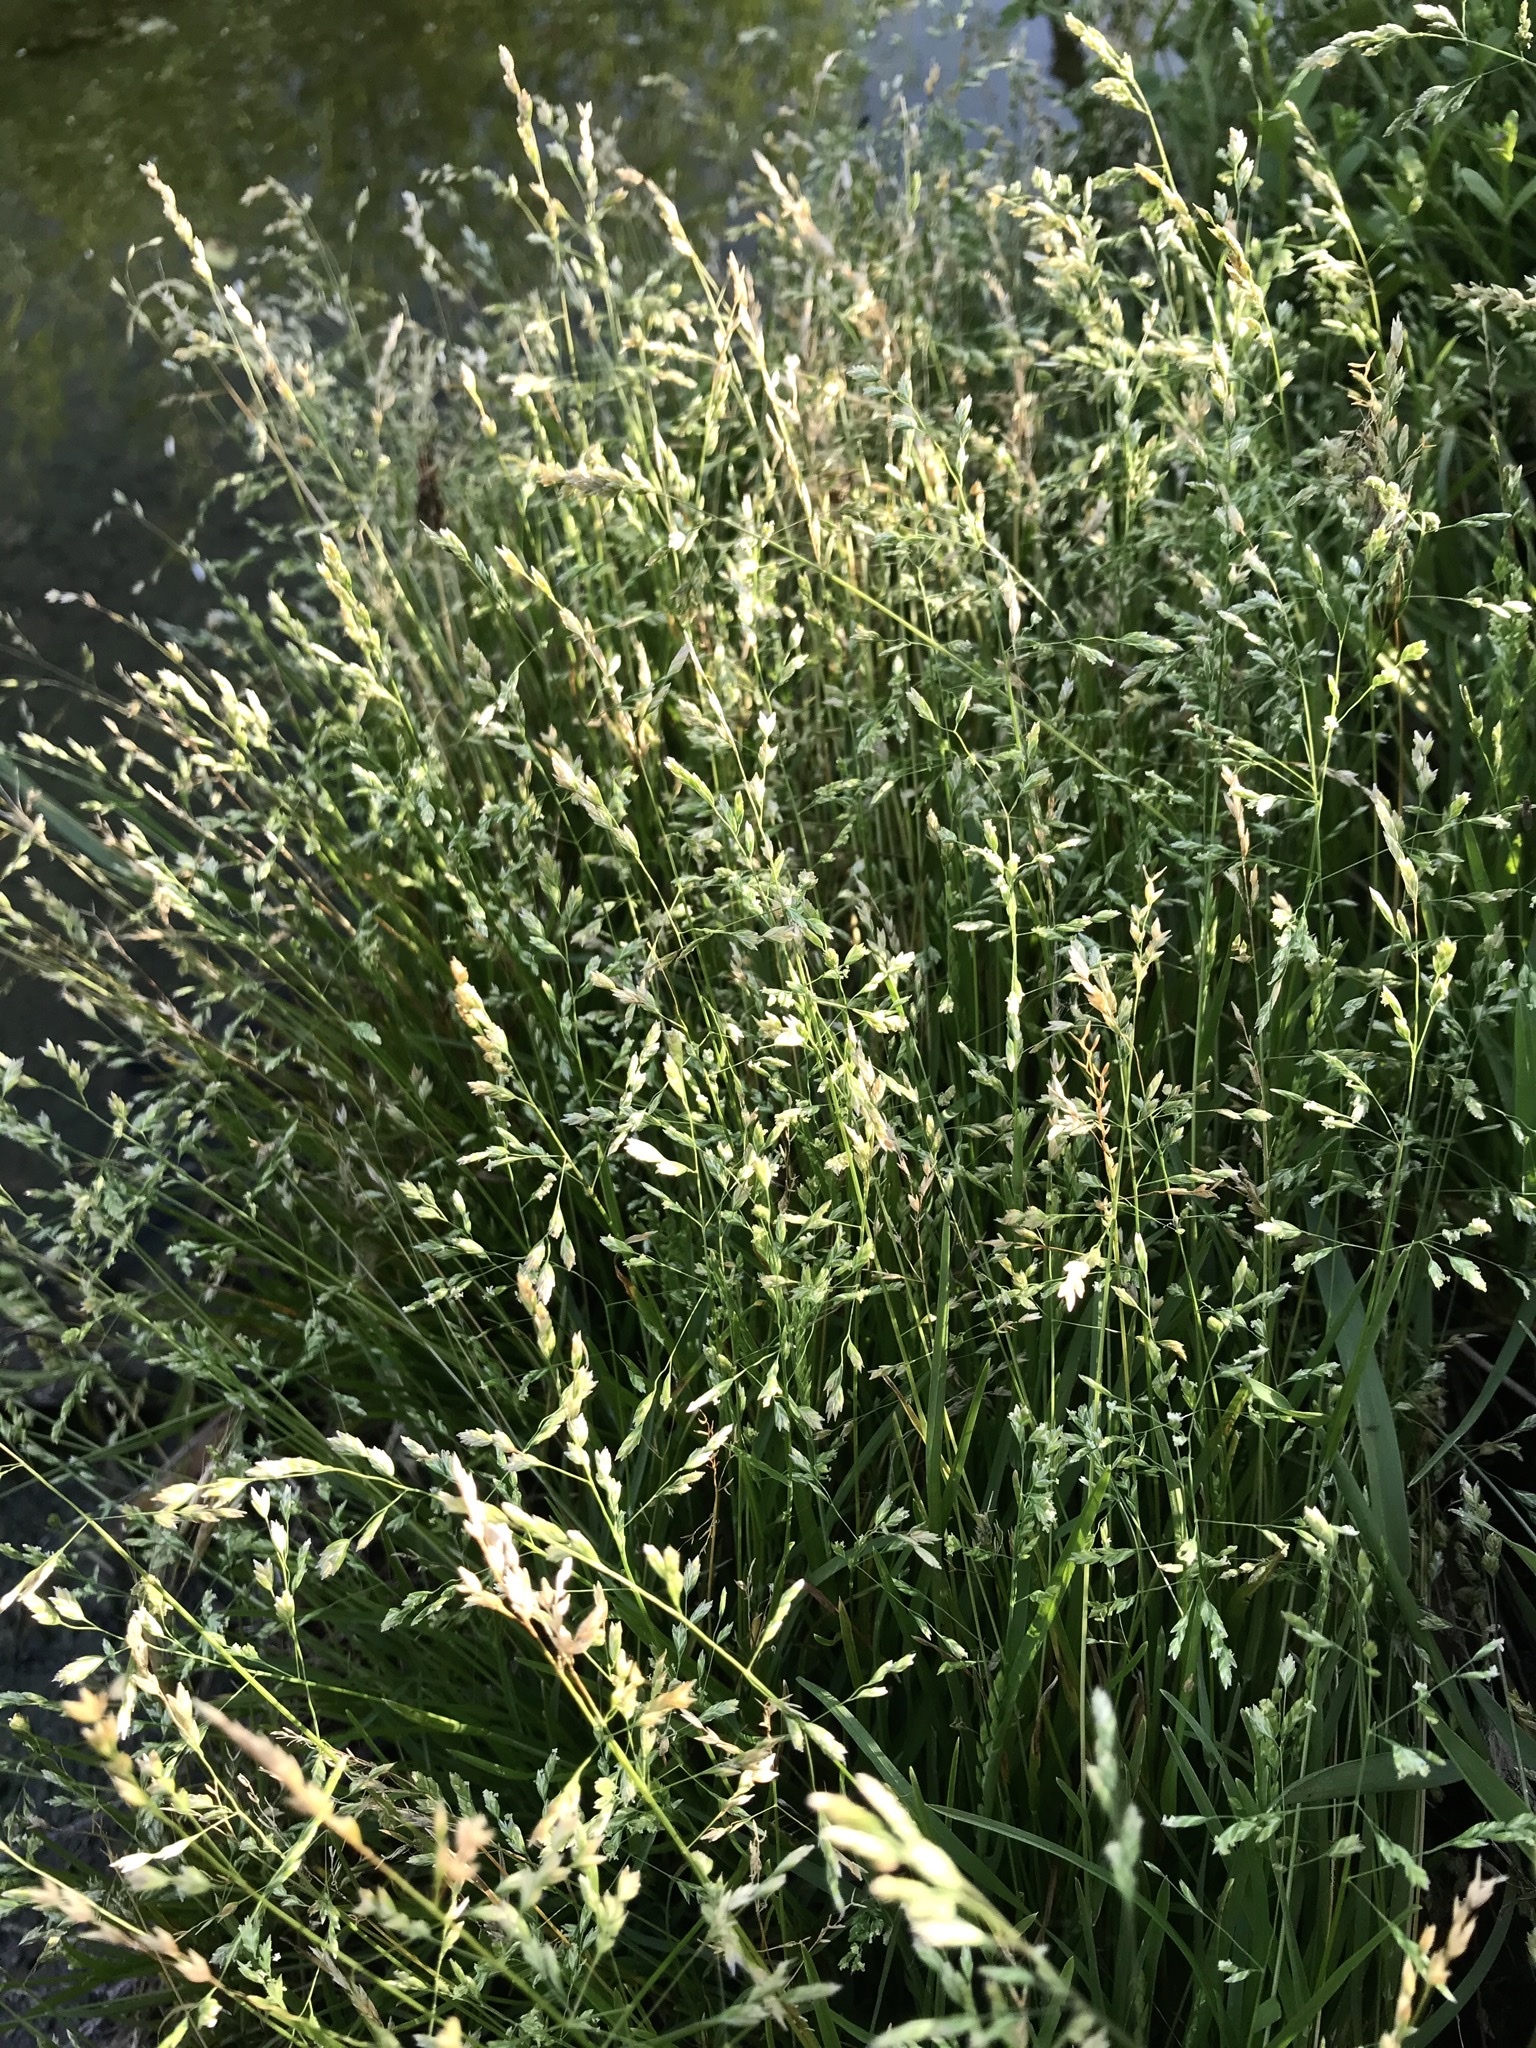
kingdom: Plantae
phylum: Tracheophyta
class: Liliopsida
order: Poales
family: Poaceae
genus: Poa
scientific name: Poa annua
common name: Annual bluegrass
